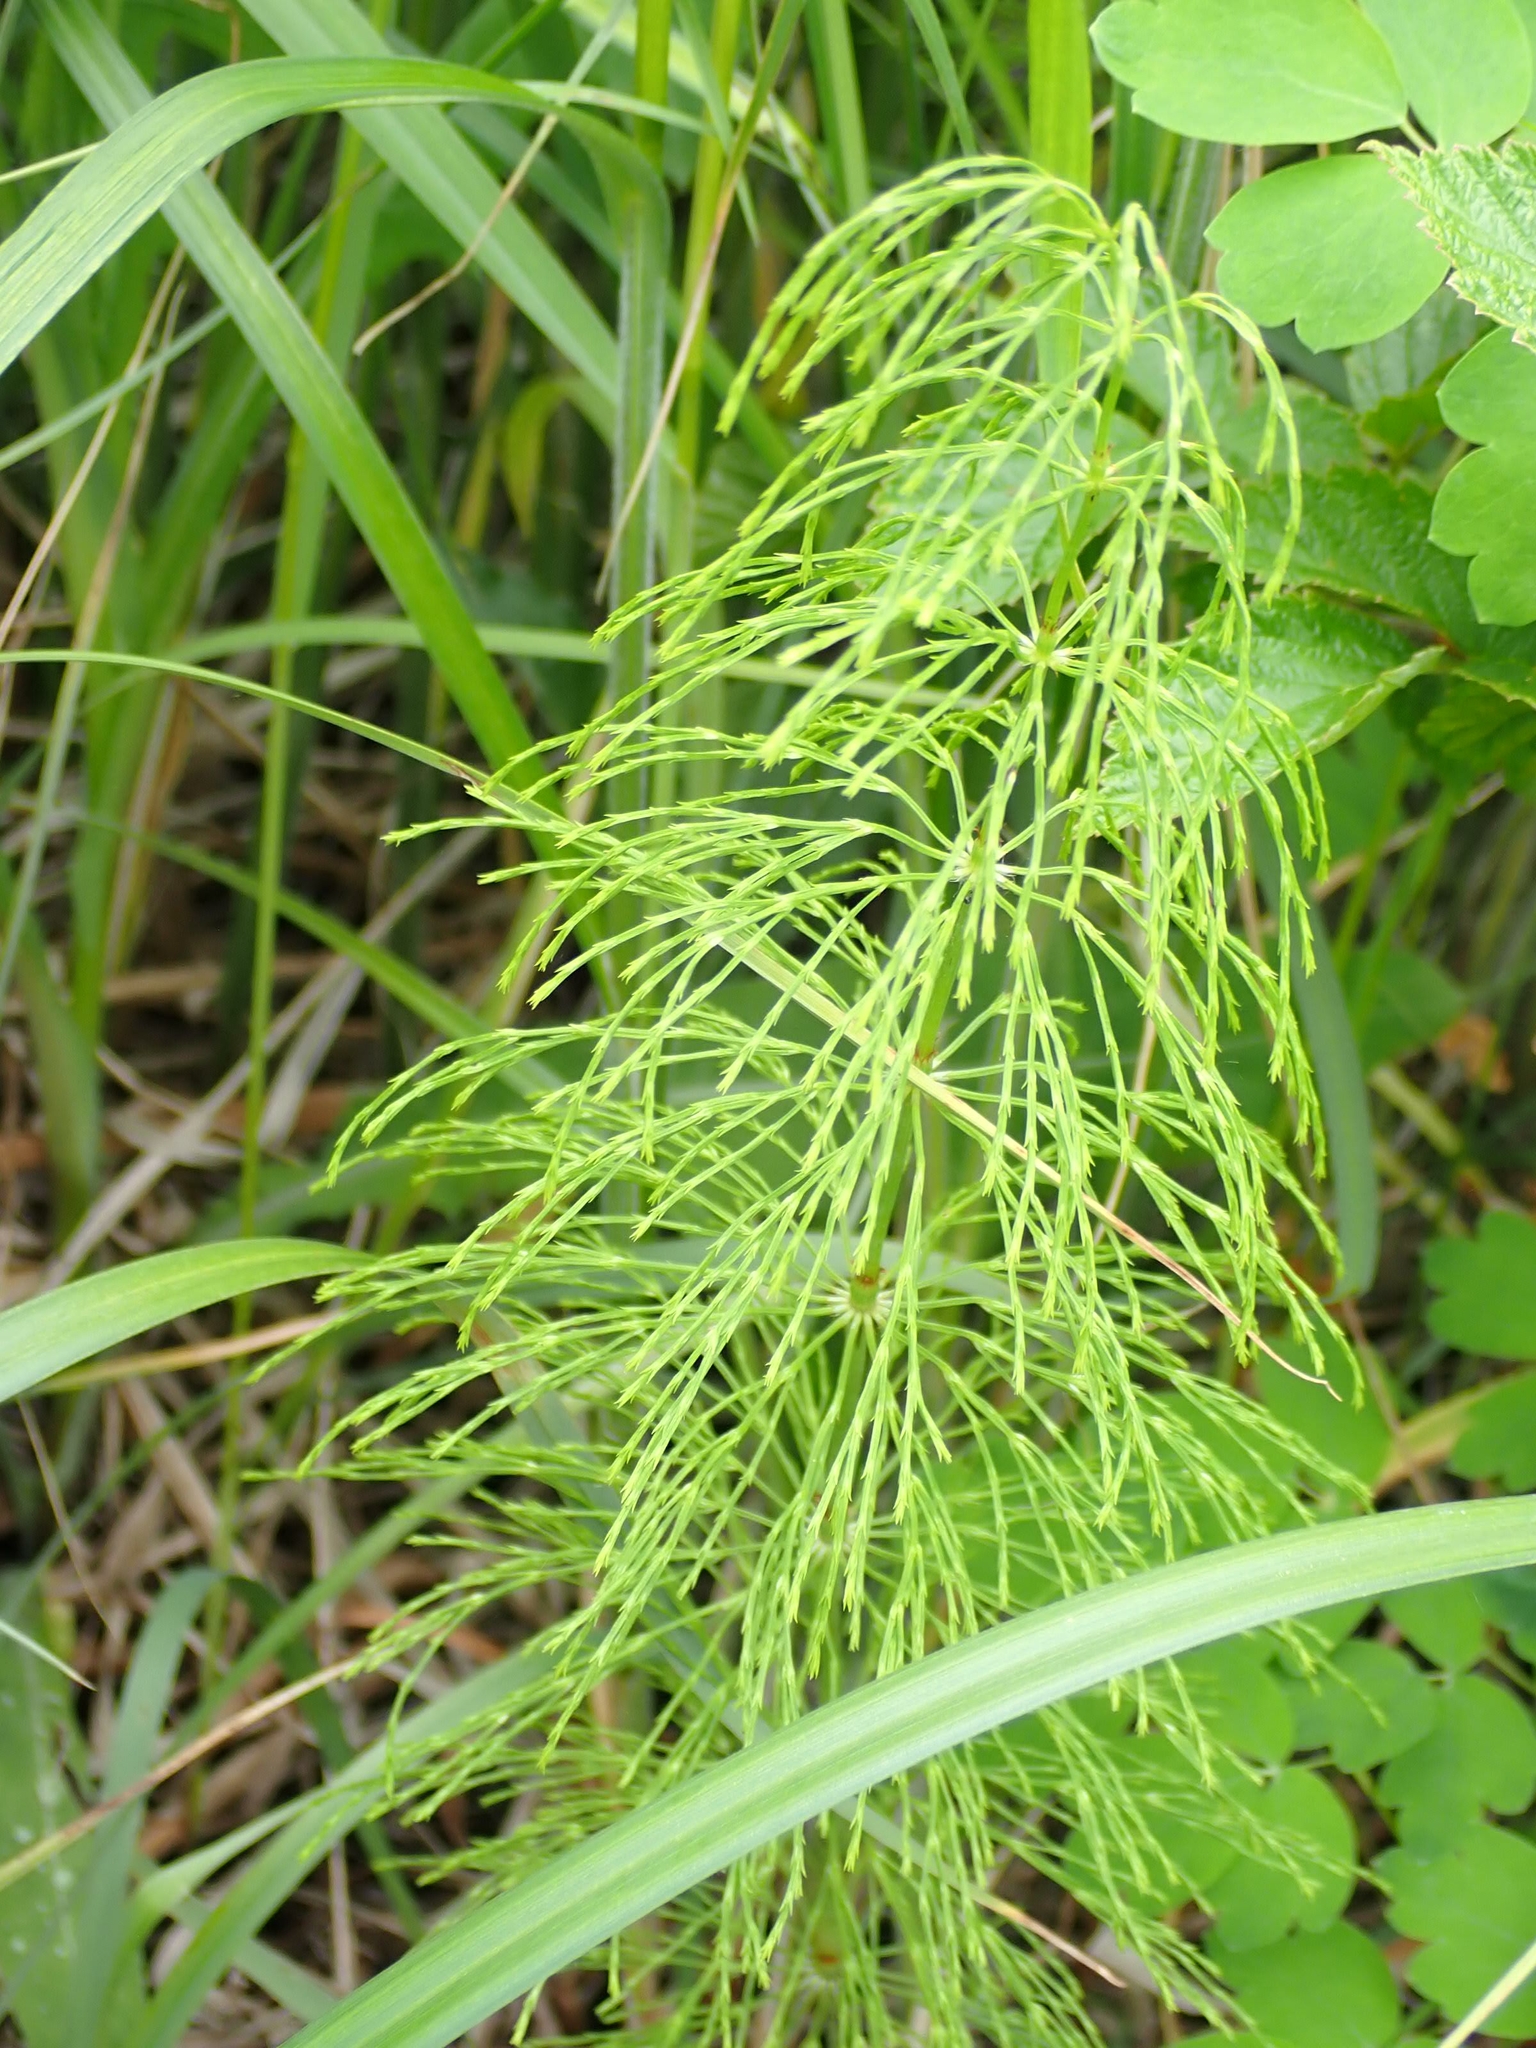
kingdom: Plantae
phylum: Tracheophyta
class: Polypodiopsida
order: Equisetales
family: Equisetaceae
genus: Equisetum
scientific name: Equisetum sylvaticum
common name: Wood horsetail
